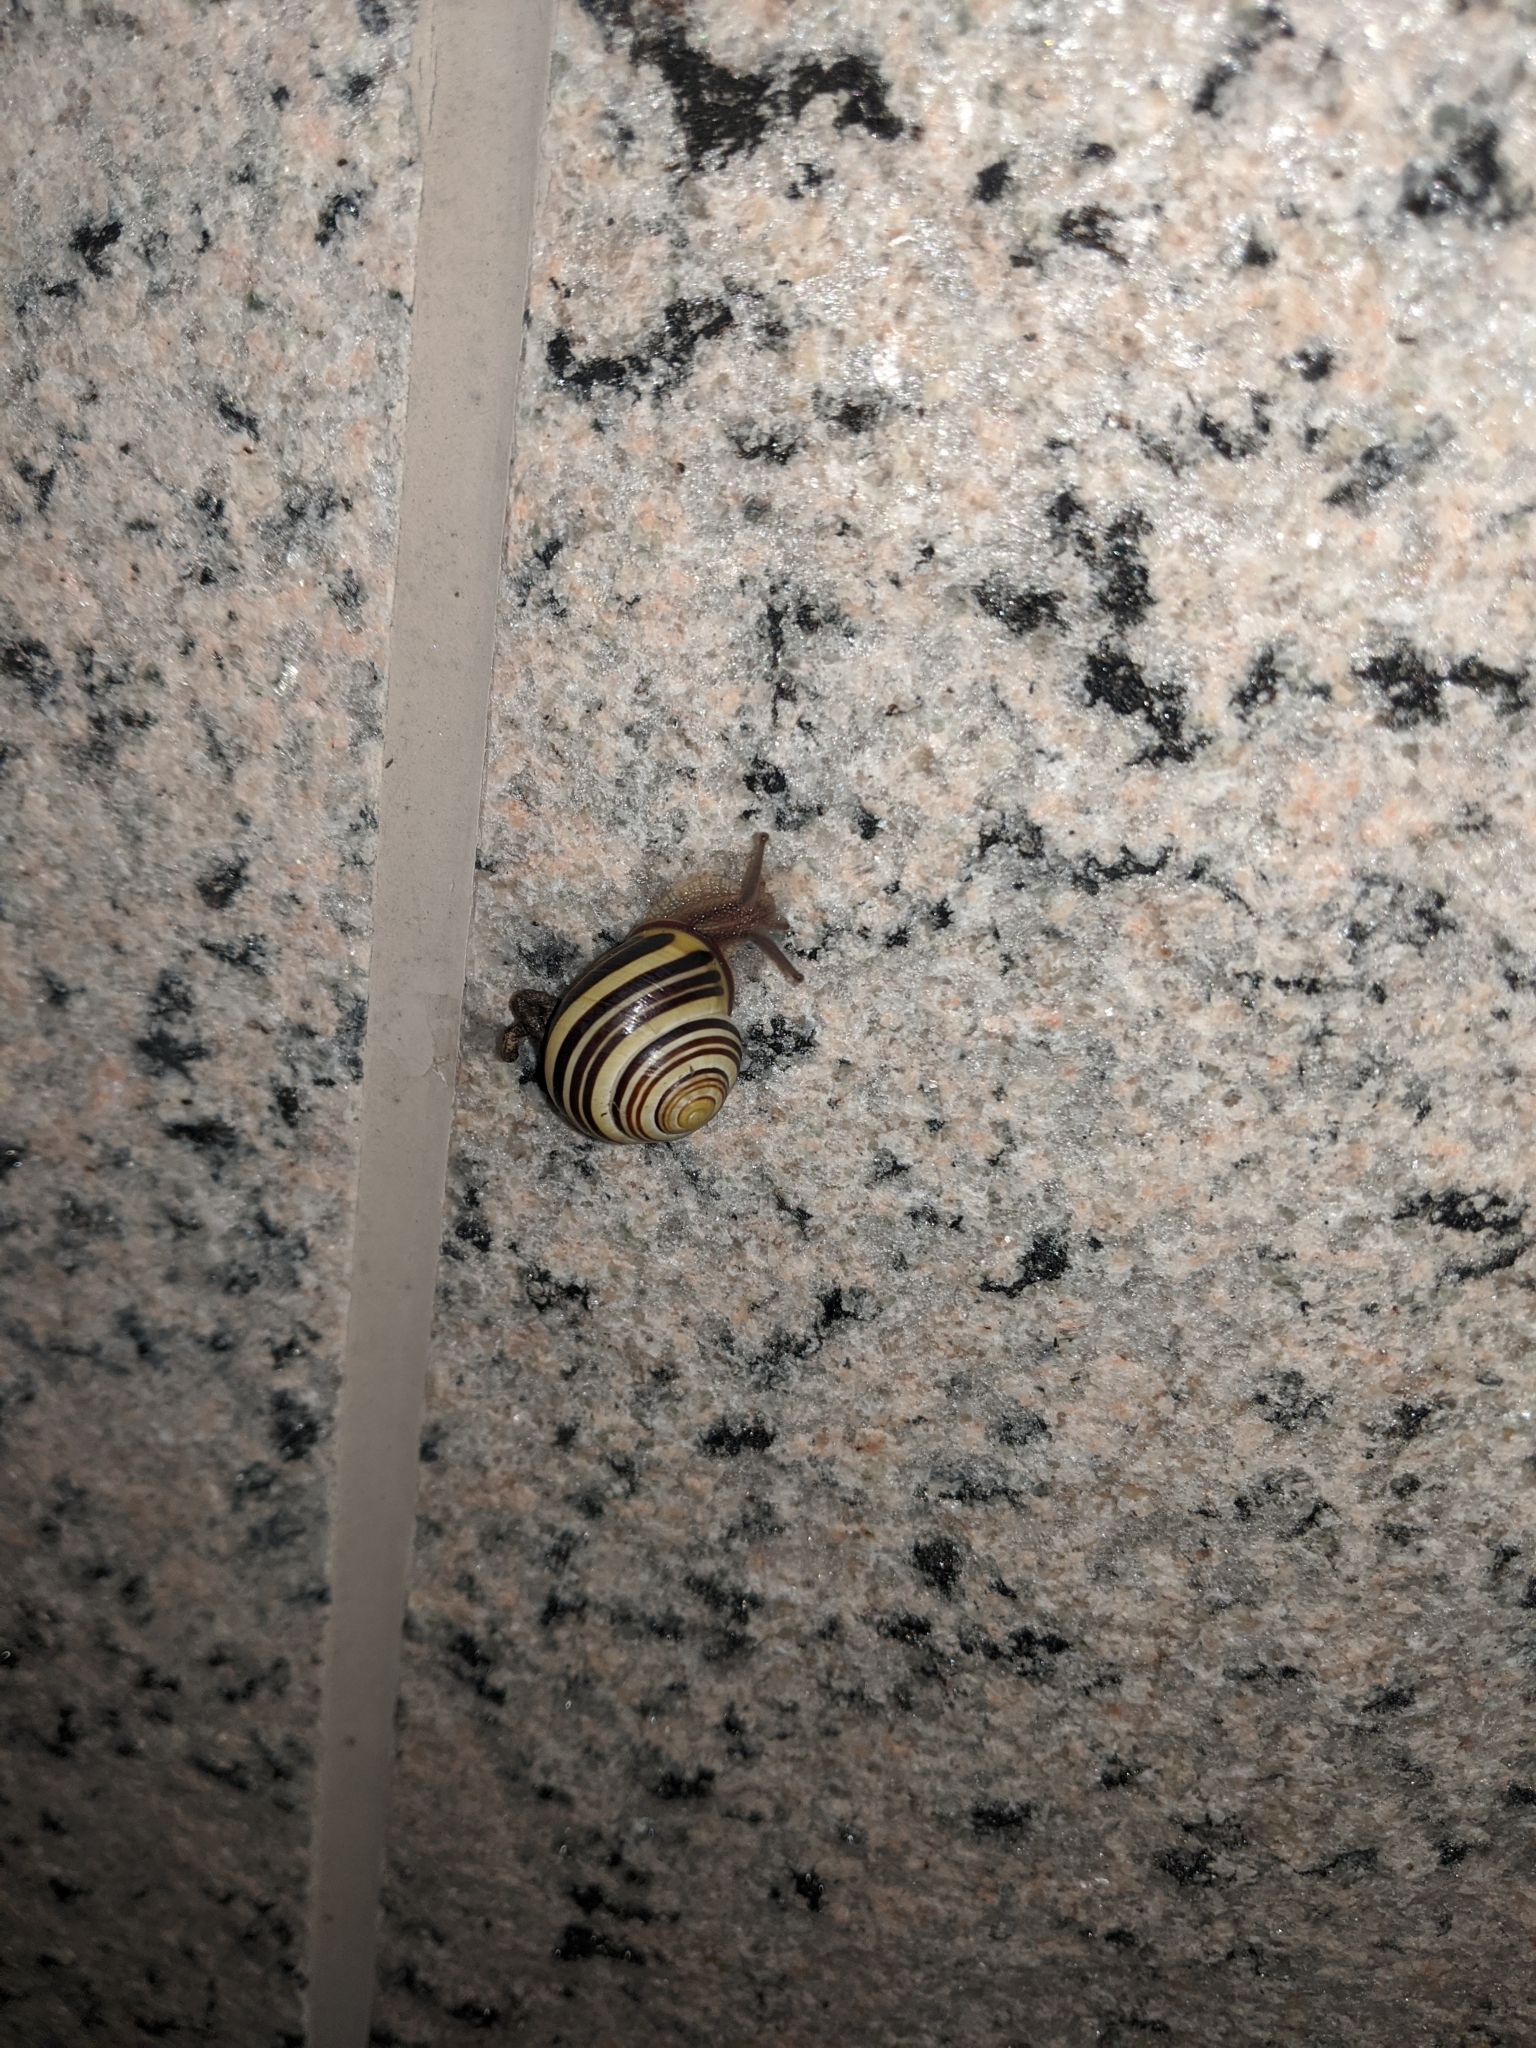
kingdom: Animalia
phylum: Mollusca
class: Gastropoda
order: Stylommatophora
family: Helicidae
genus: Cepaea
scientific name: Cepaea nemoralis
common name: Grovesnail
